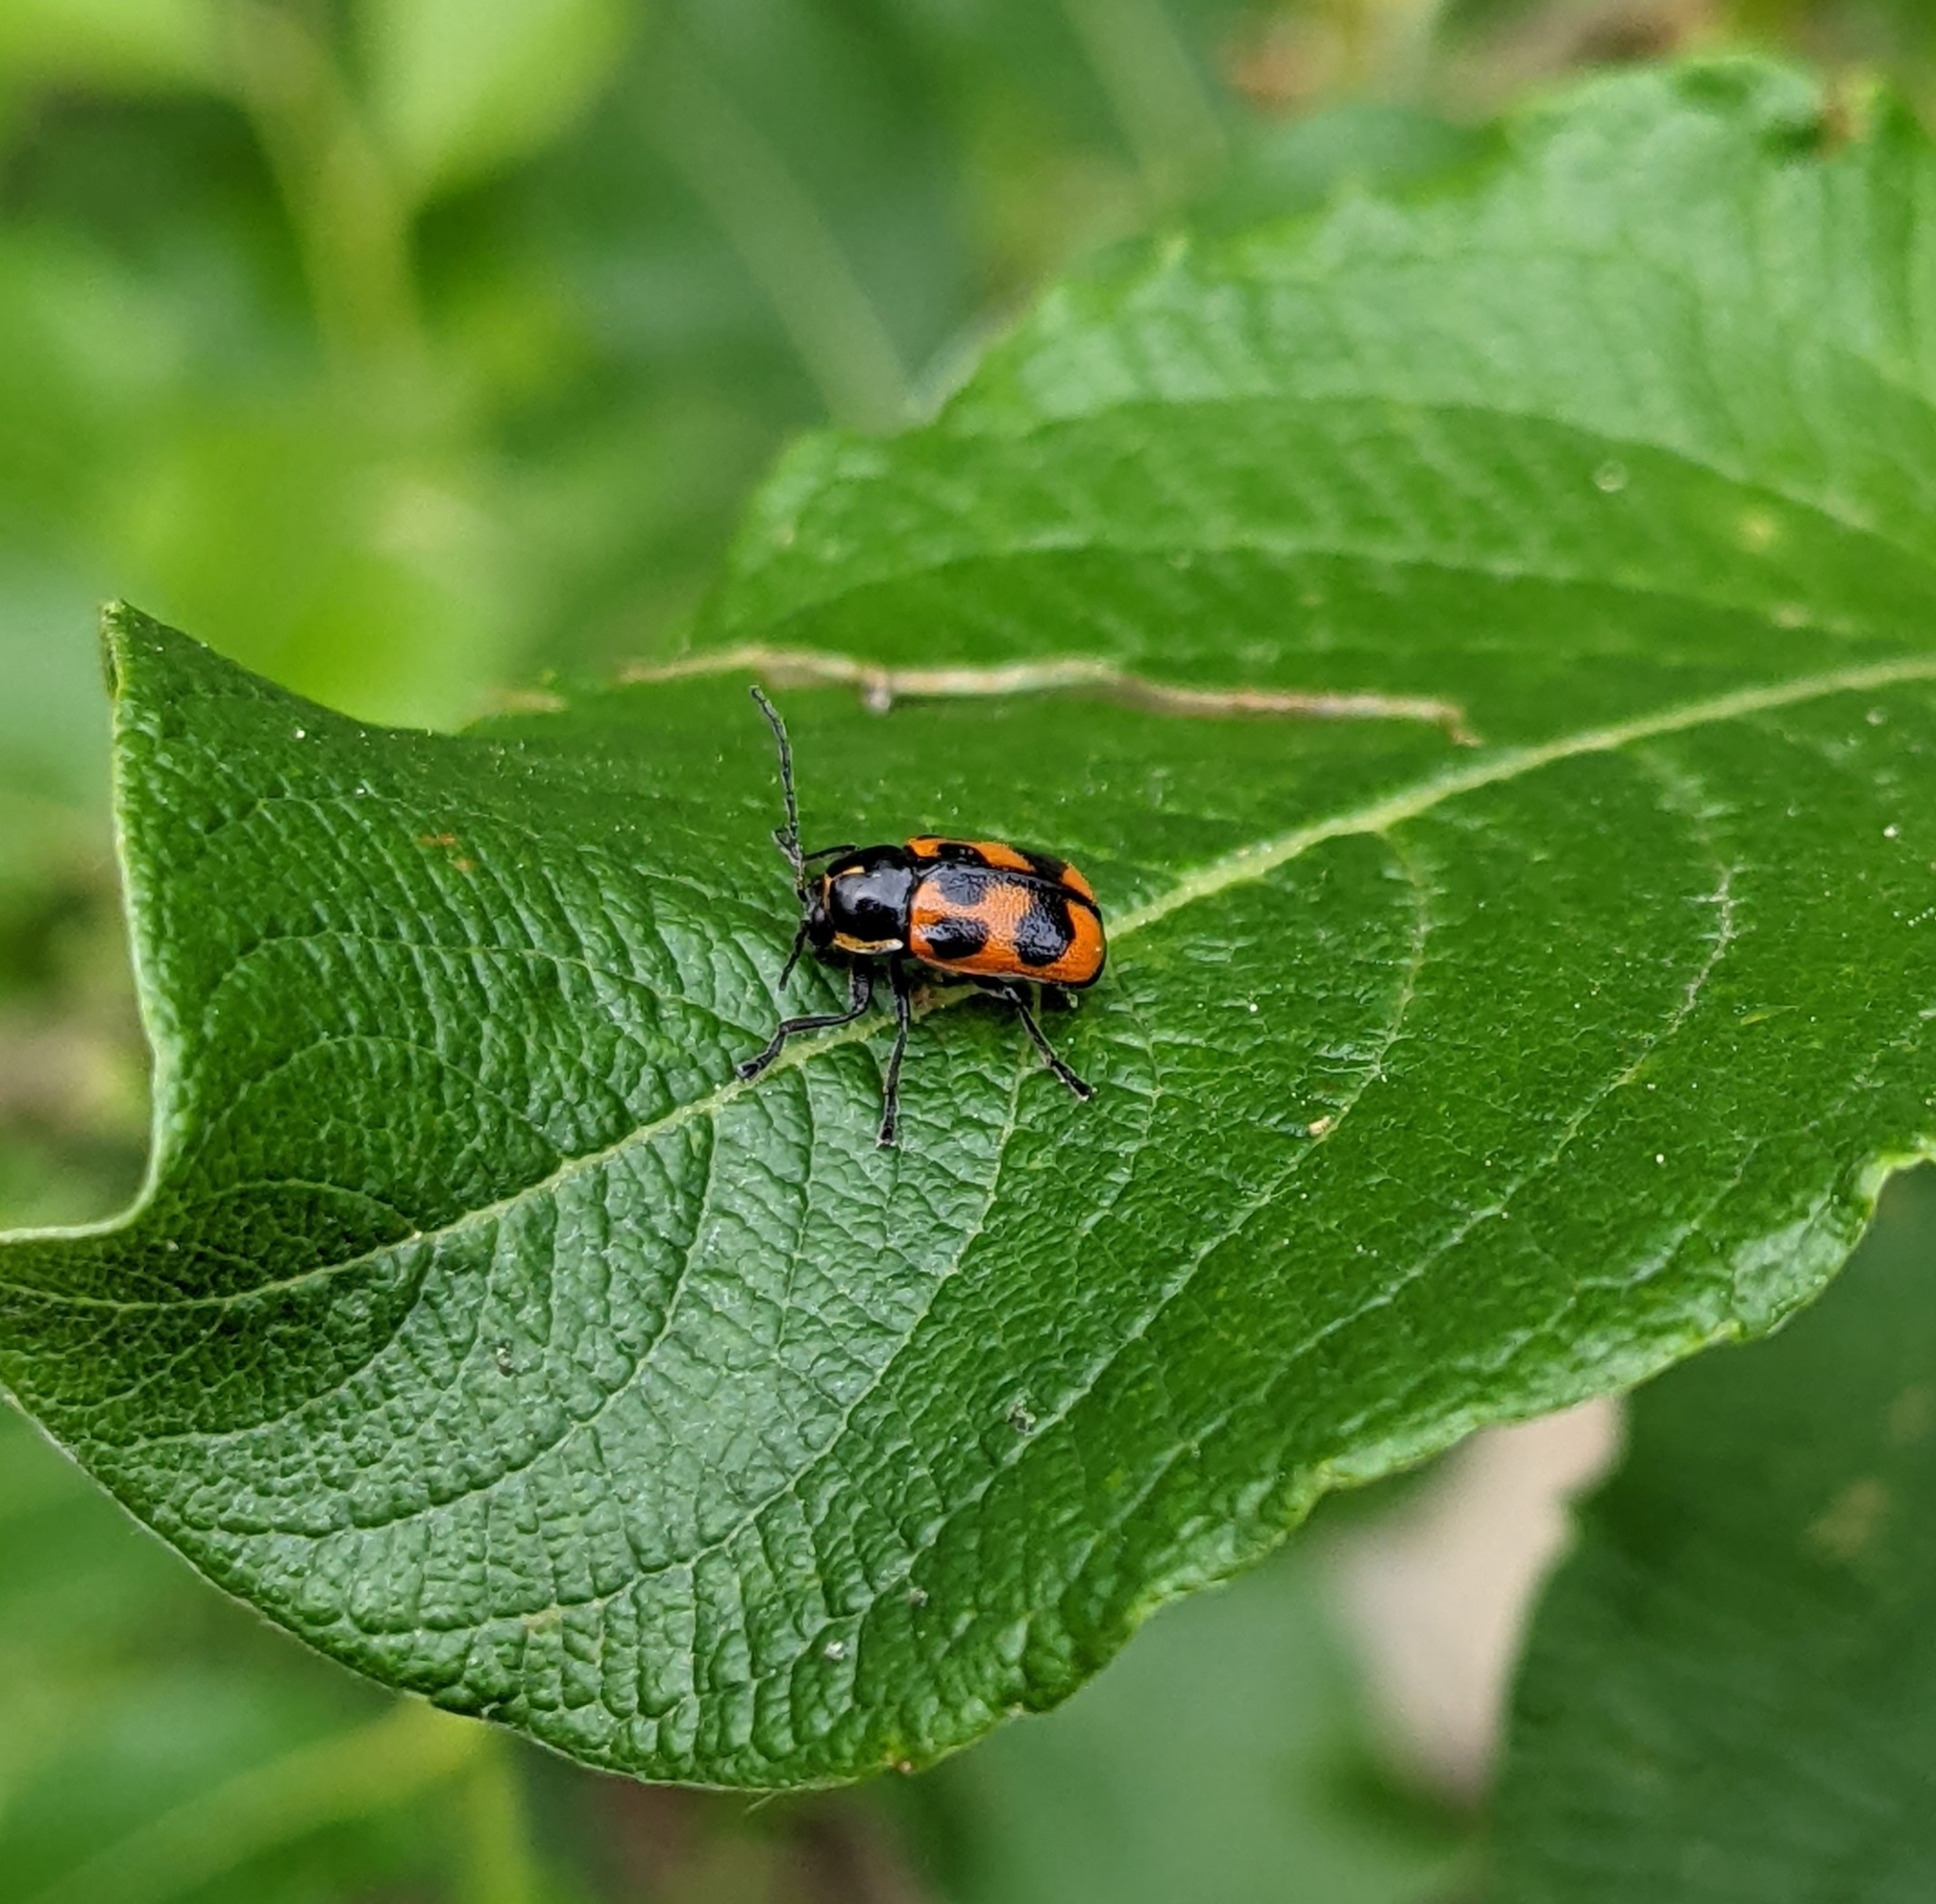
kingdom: Animalia
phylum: Arthropoda
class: Insecta
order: Coleoptera
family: Chrysomelidae
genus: Cryptocephalus
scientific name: Cryptocephalus quinquepunctatus
